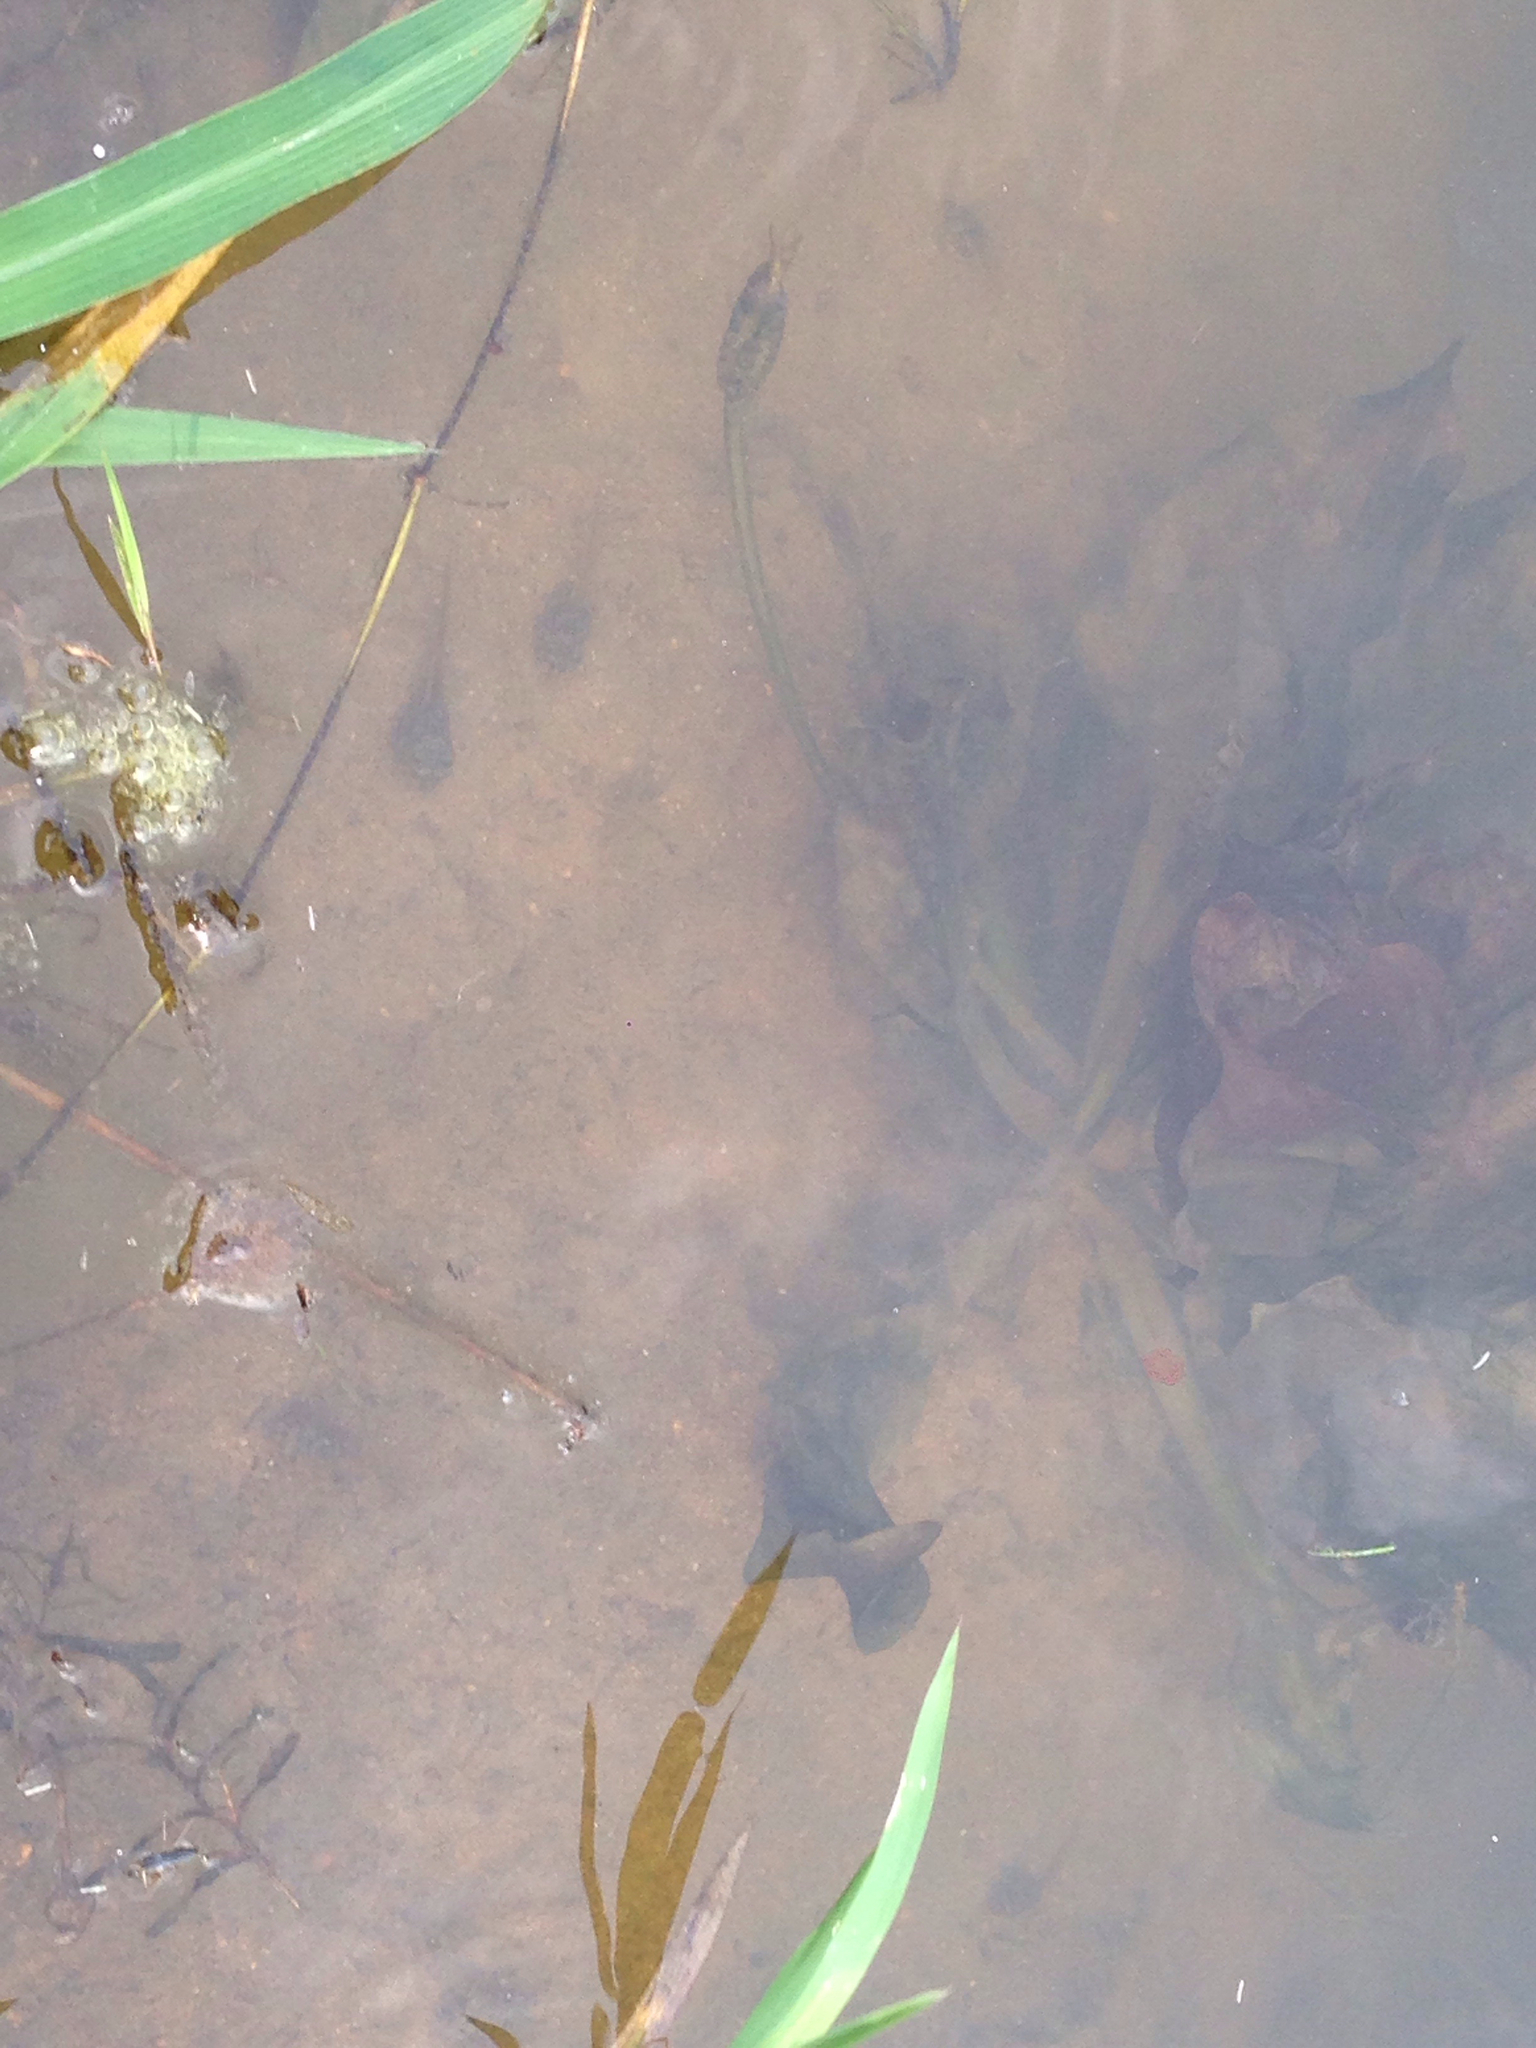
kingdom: Animalia
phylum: Chordata
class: Amphibia
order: Anura
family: Ranidae
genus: Lithobates
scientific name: Lithobates catesbeianus
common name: American bullfrog
